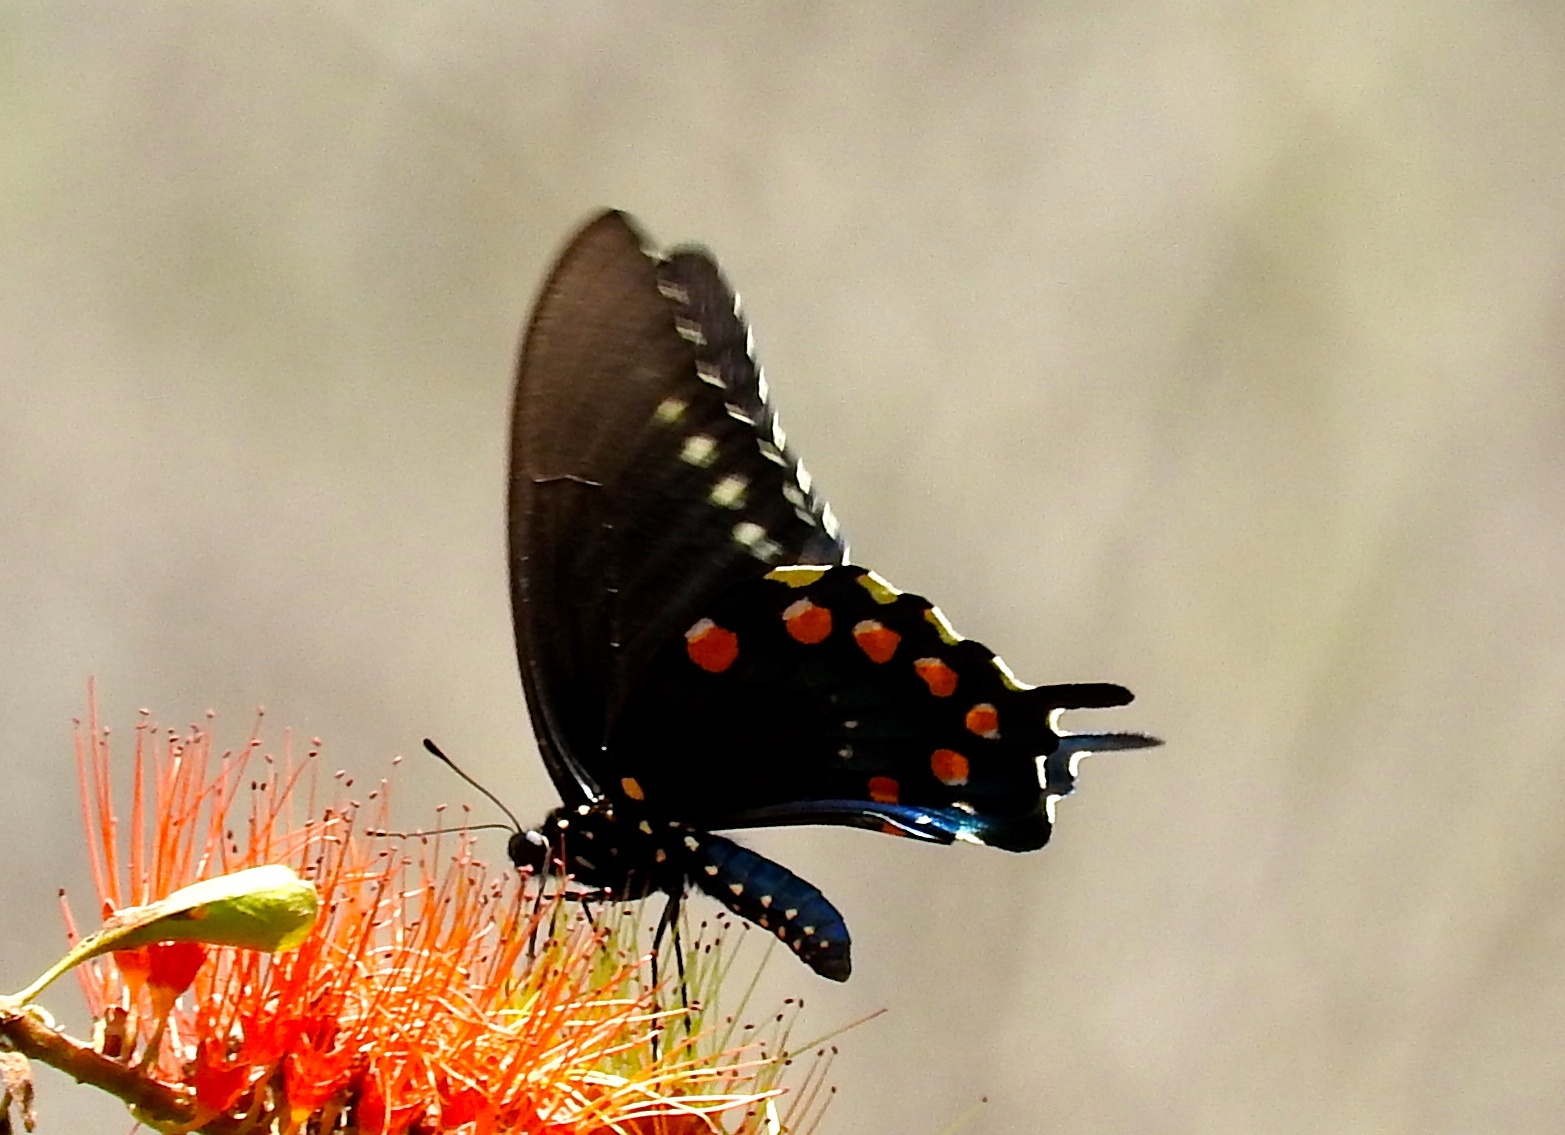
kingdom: Animalia
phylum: Arthropoda
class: Insecta
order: Lepidoptera
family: Papilionidae
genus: Battus
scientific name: Battus philenor
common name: Pipevine swallowtail
